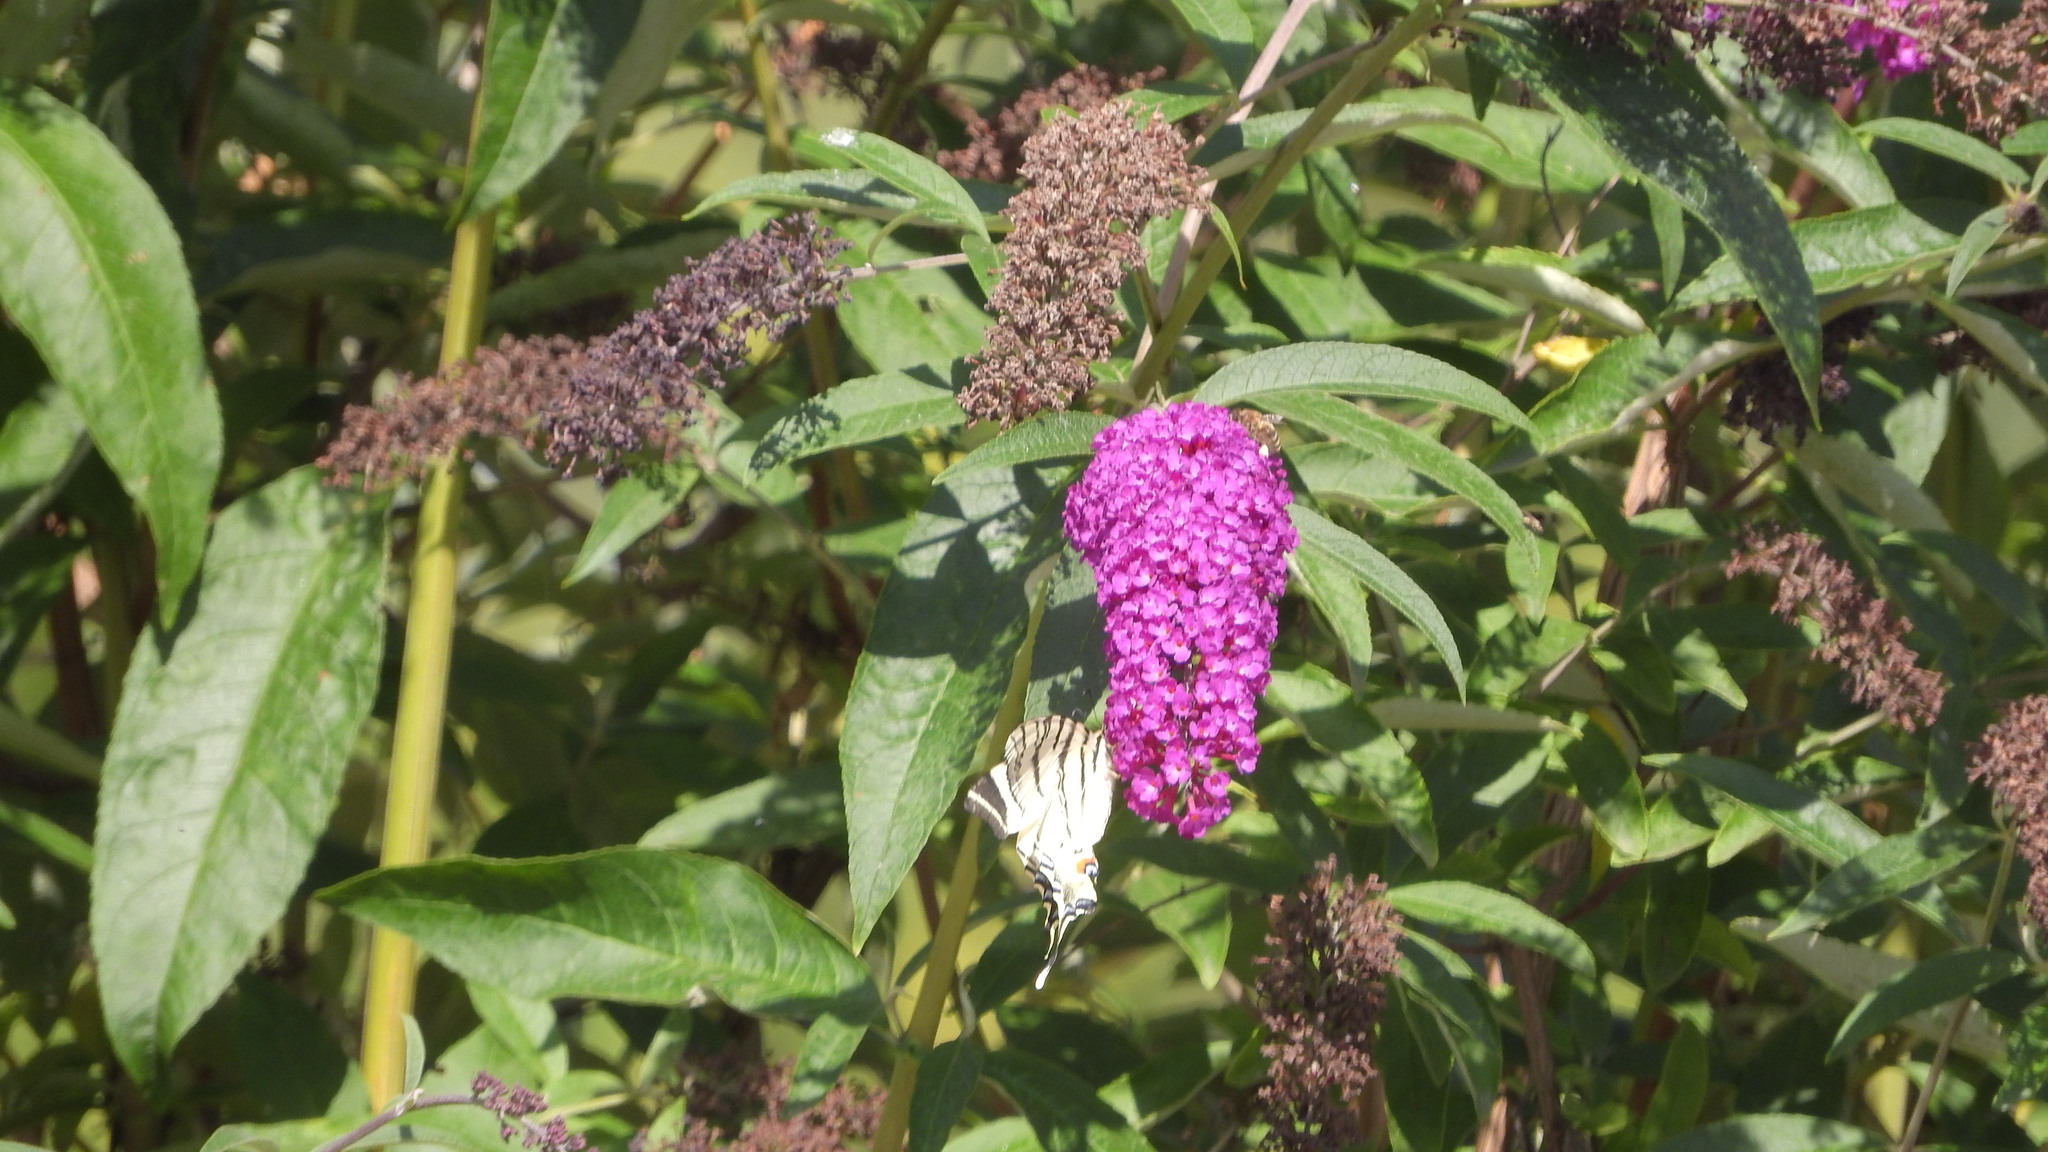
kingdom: Animalia
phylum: Arthropoda
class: Insecta
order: Lepidoptera
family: Papilionidae
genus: Iphiclides
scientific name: Iphiclides podalirius
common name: Scarce swallowtail
